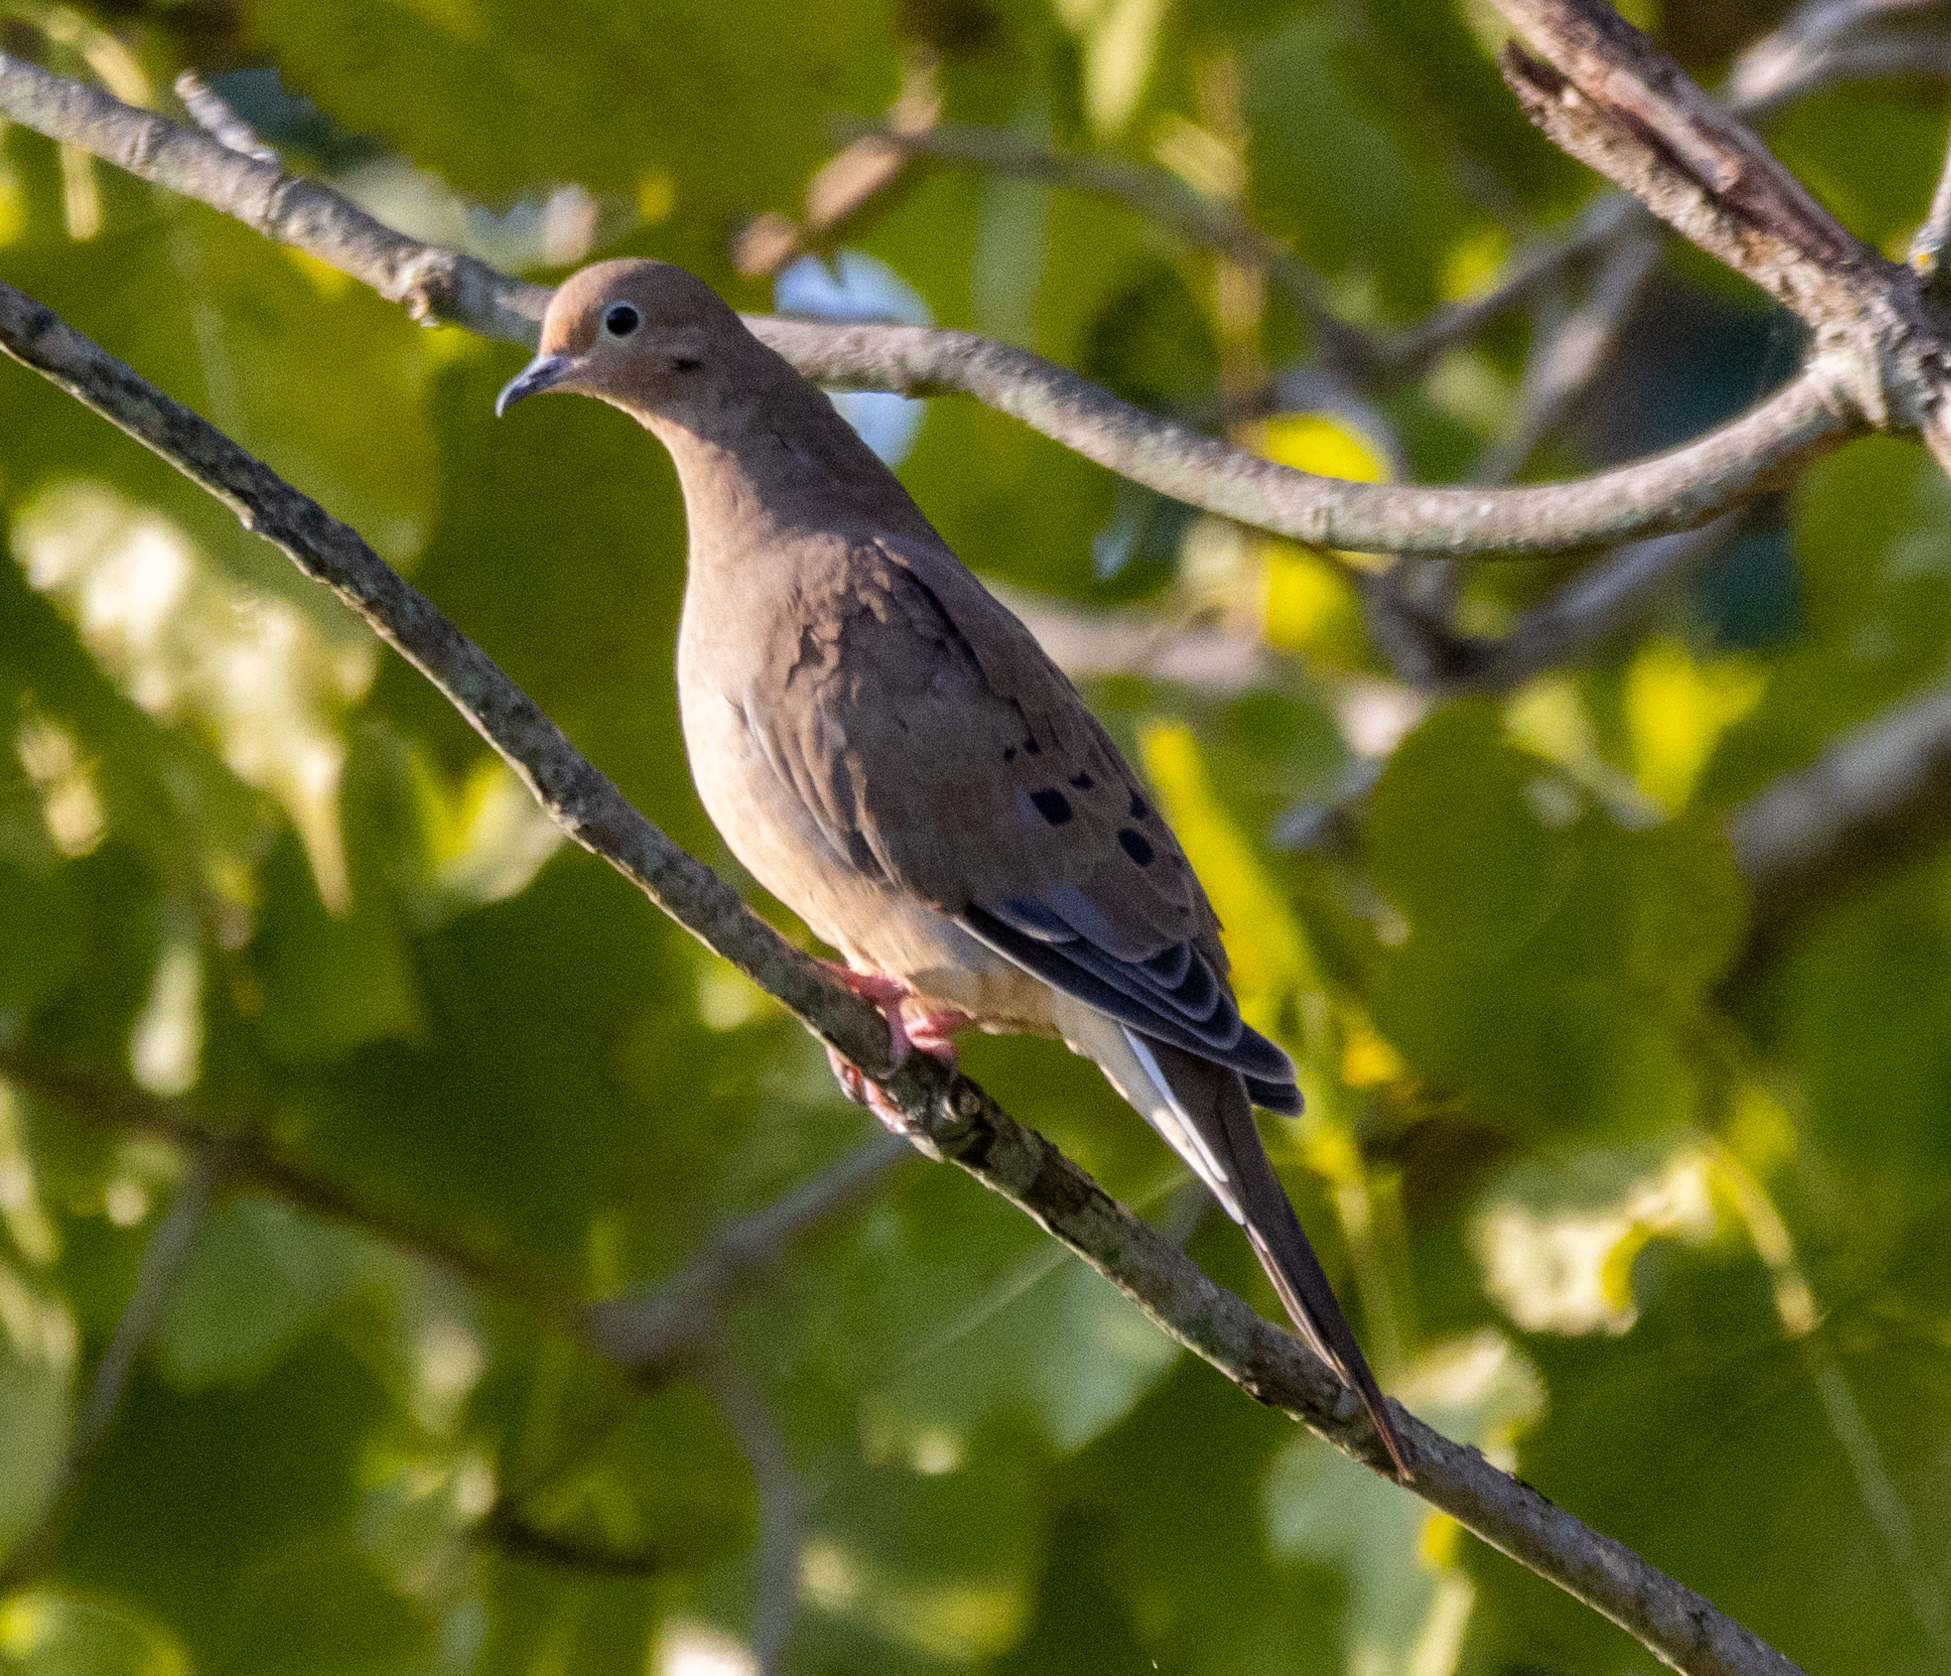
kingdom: Animalia
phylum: Chordata
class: Aves
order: Columbiformes
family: Columbidae
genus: Zenaida
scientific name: Zenaida macroura
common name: Mourning dove
